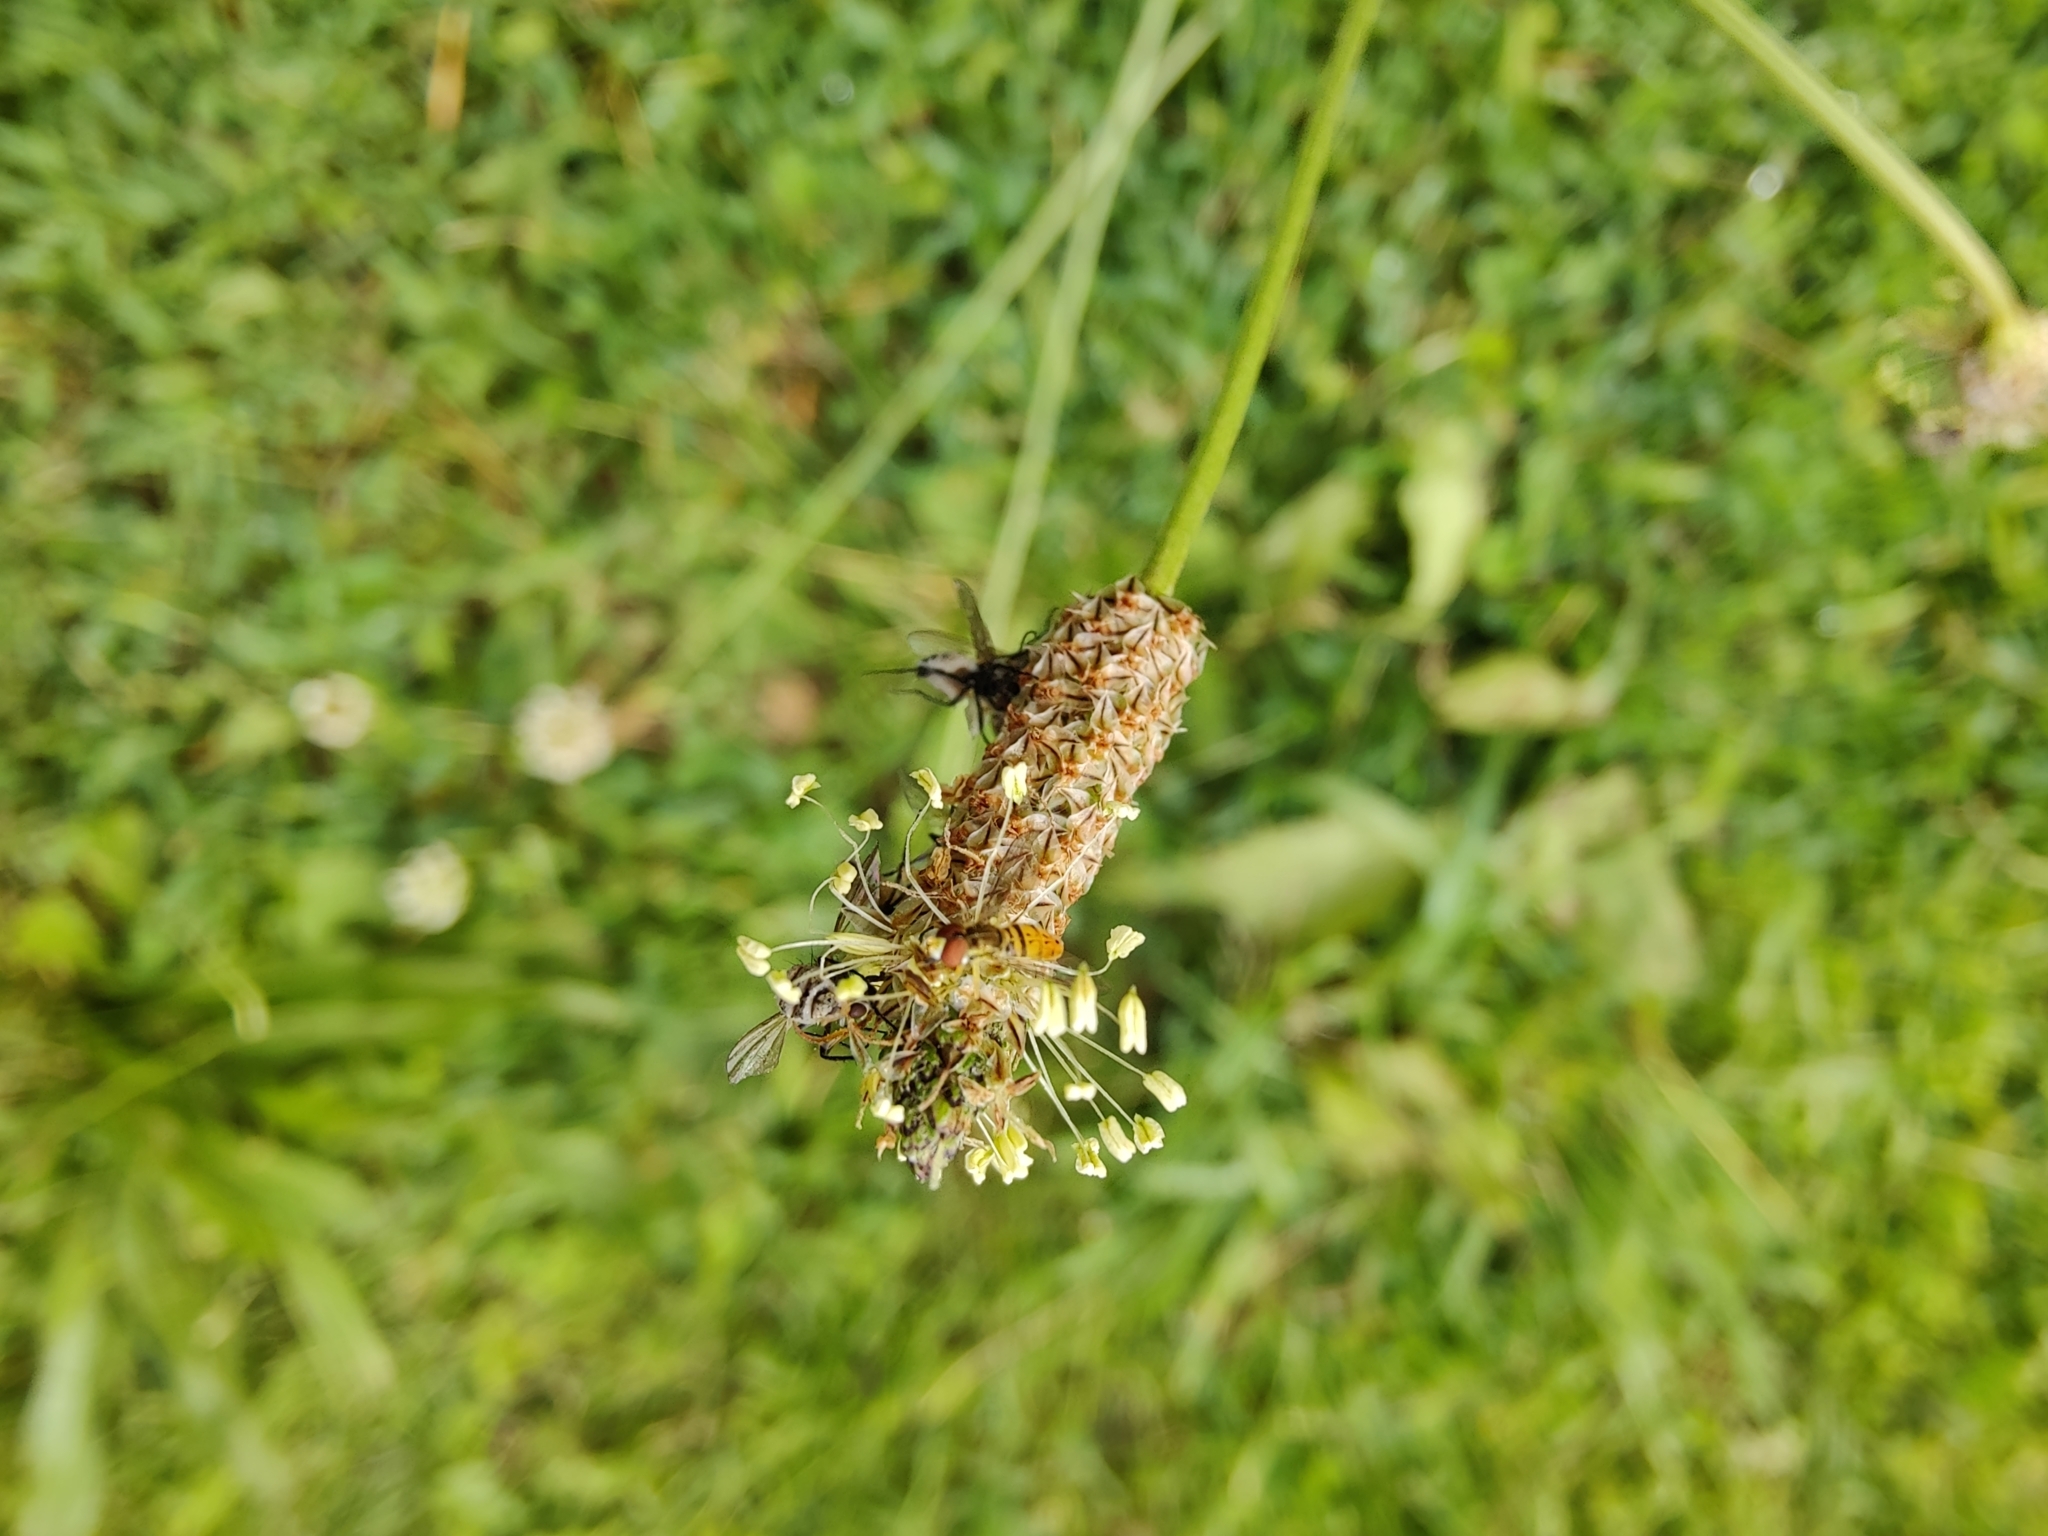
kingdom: Animalia
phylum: Arthropoda
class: Insecta
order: Diptera
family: Syrphidae
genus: Toxomerus
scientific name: Toxomerus marginatus
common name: Syrphid fly
